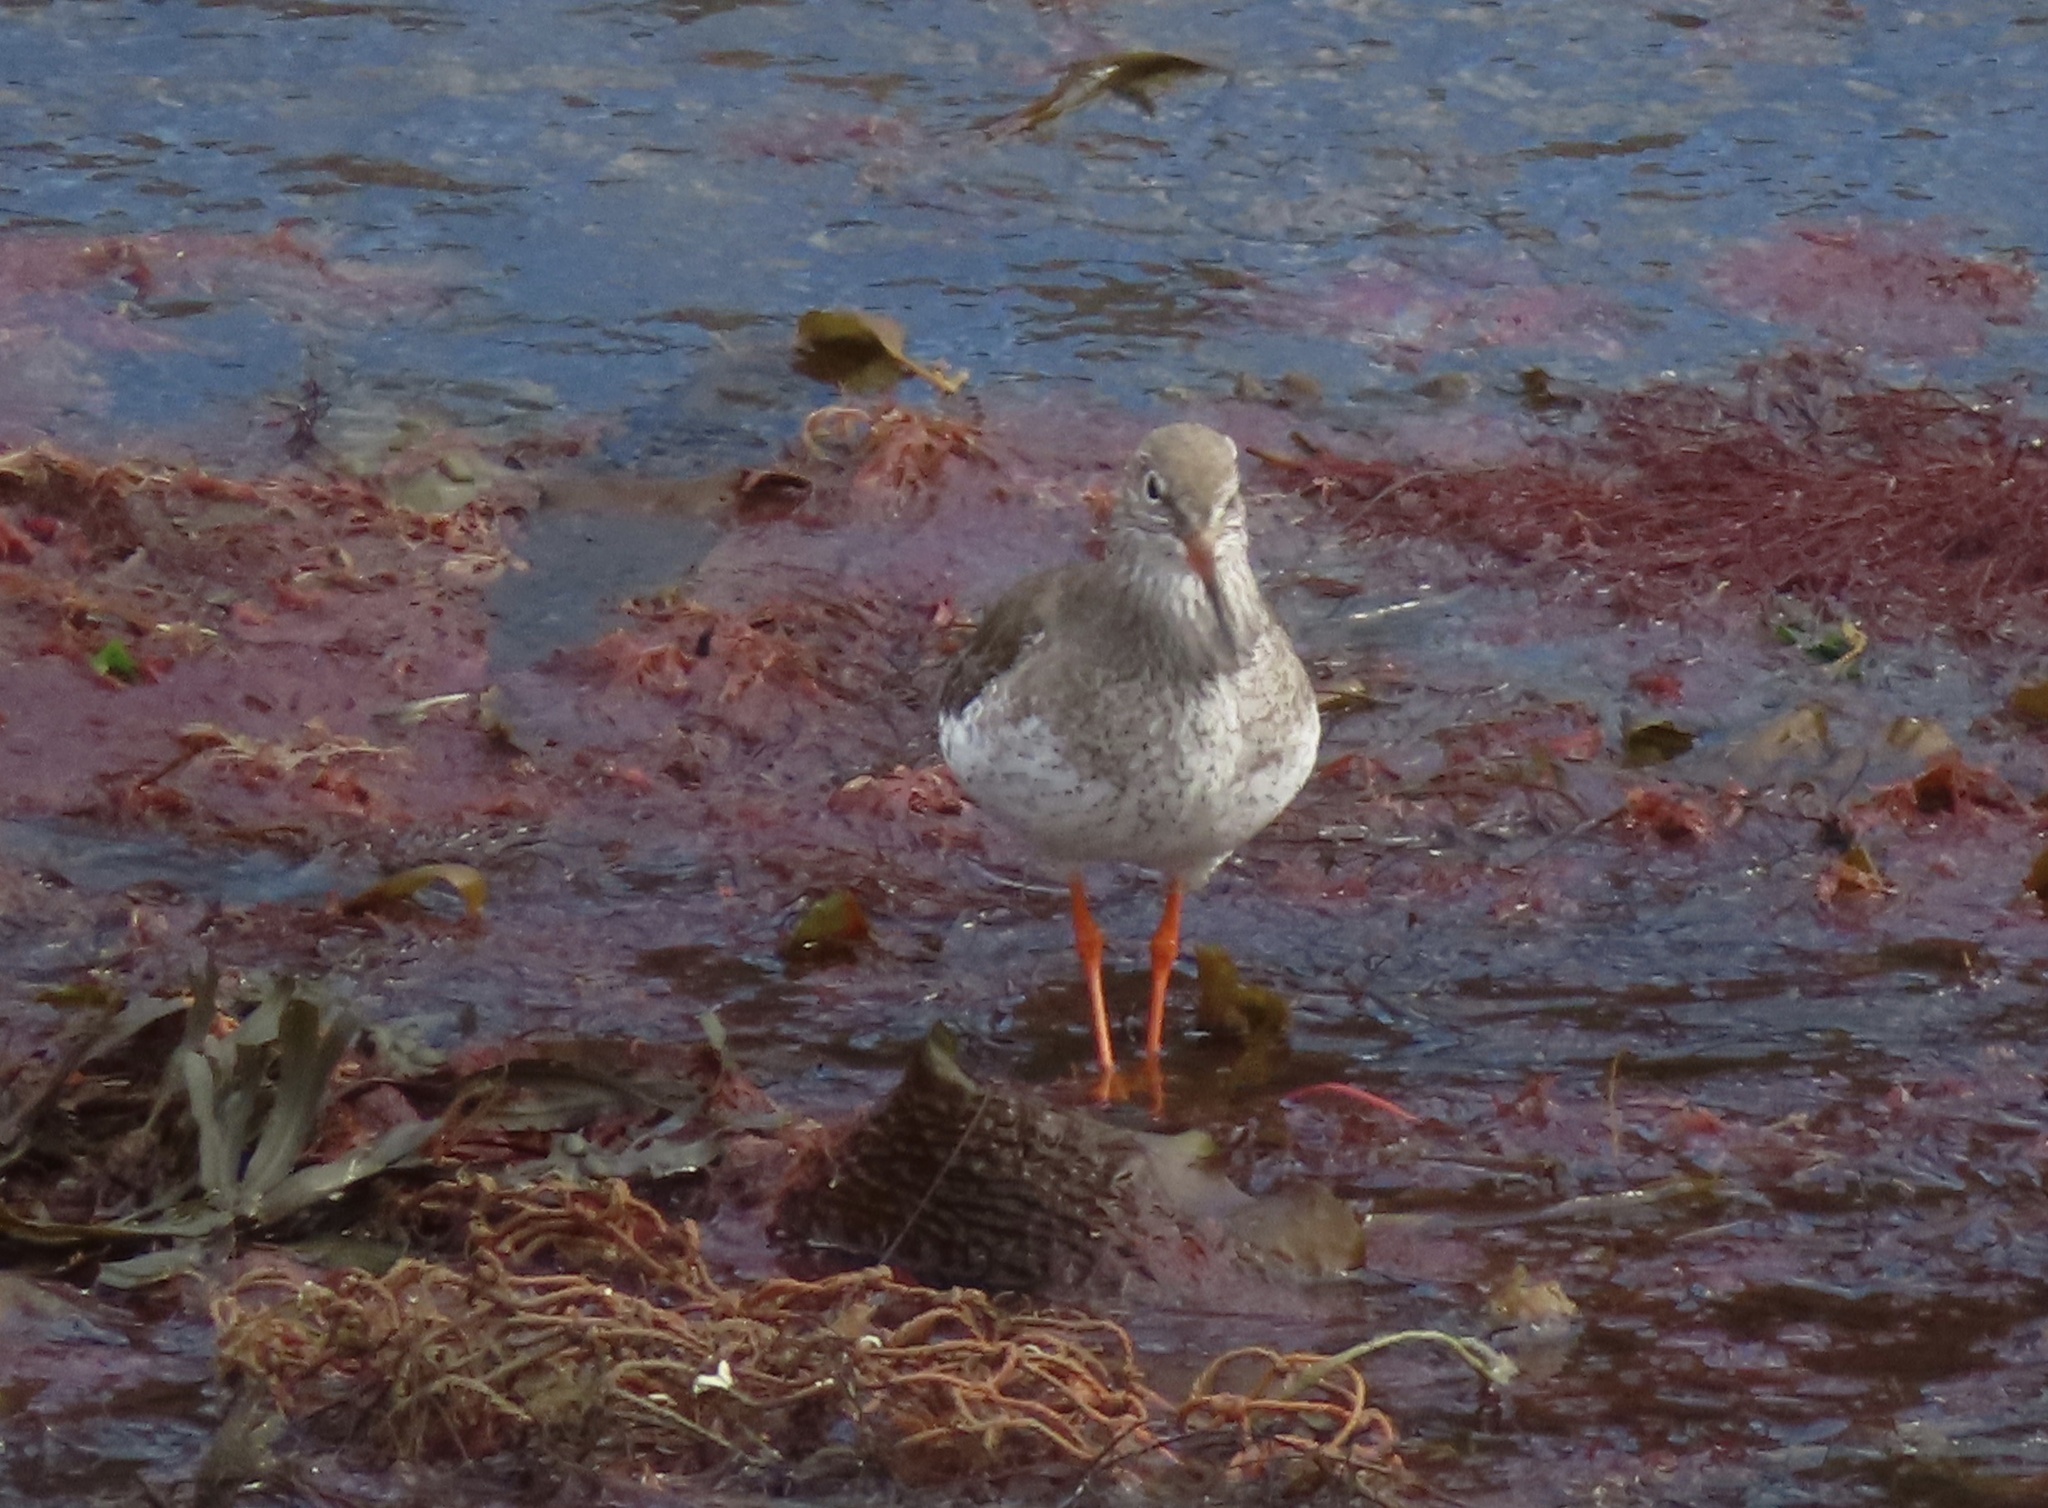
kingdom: Animalia
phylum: Chordata
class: Aves
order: Charadriiformes
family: Scolopacidae
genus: Tringa
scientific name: Tringa totanus
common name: Common redshank
